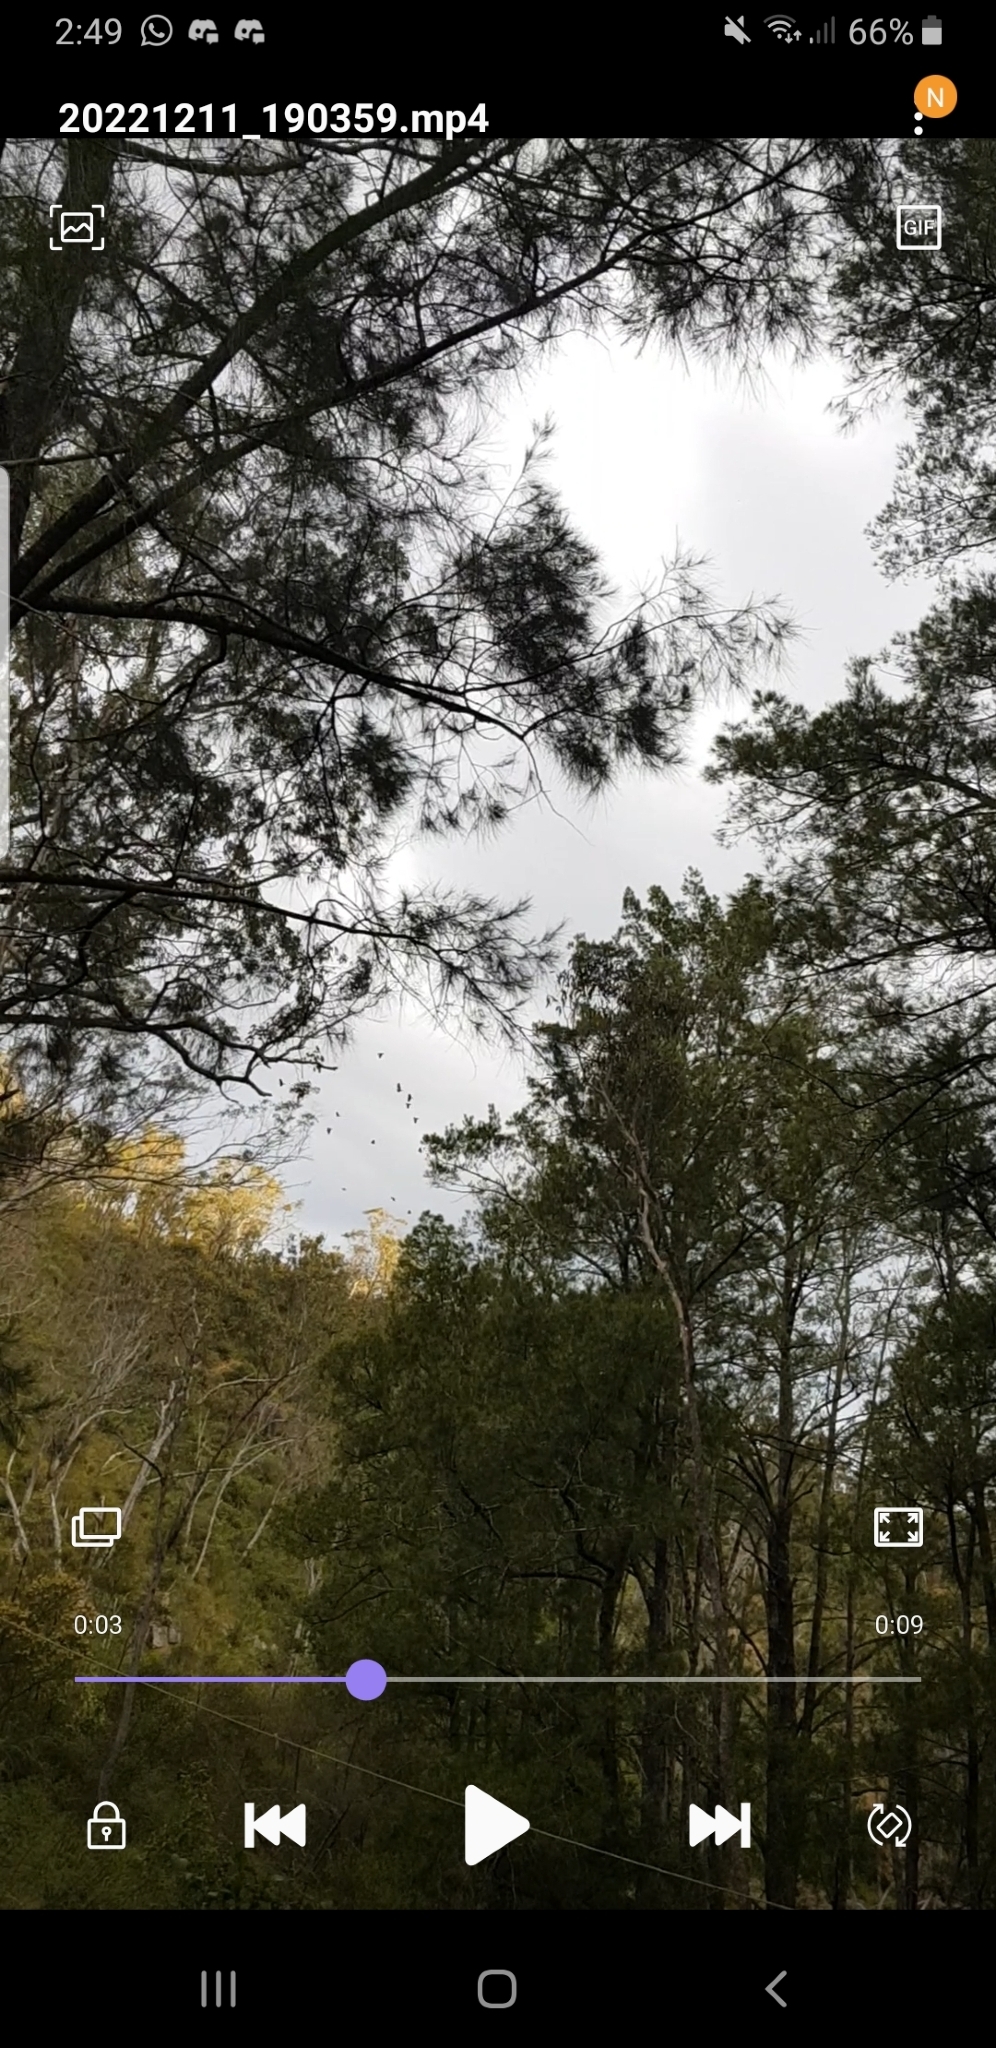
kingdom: Animalia
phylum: Chordata
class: Aves
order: Psittaciformes
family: Psittacidae
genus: Callocephalon
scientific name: Callocephalon fimbriatum
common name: Gang-gang cockatoo
